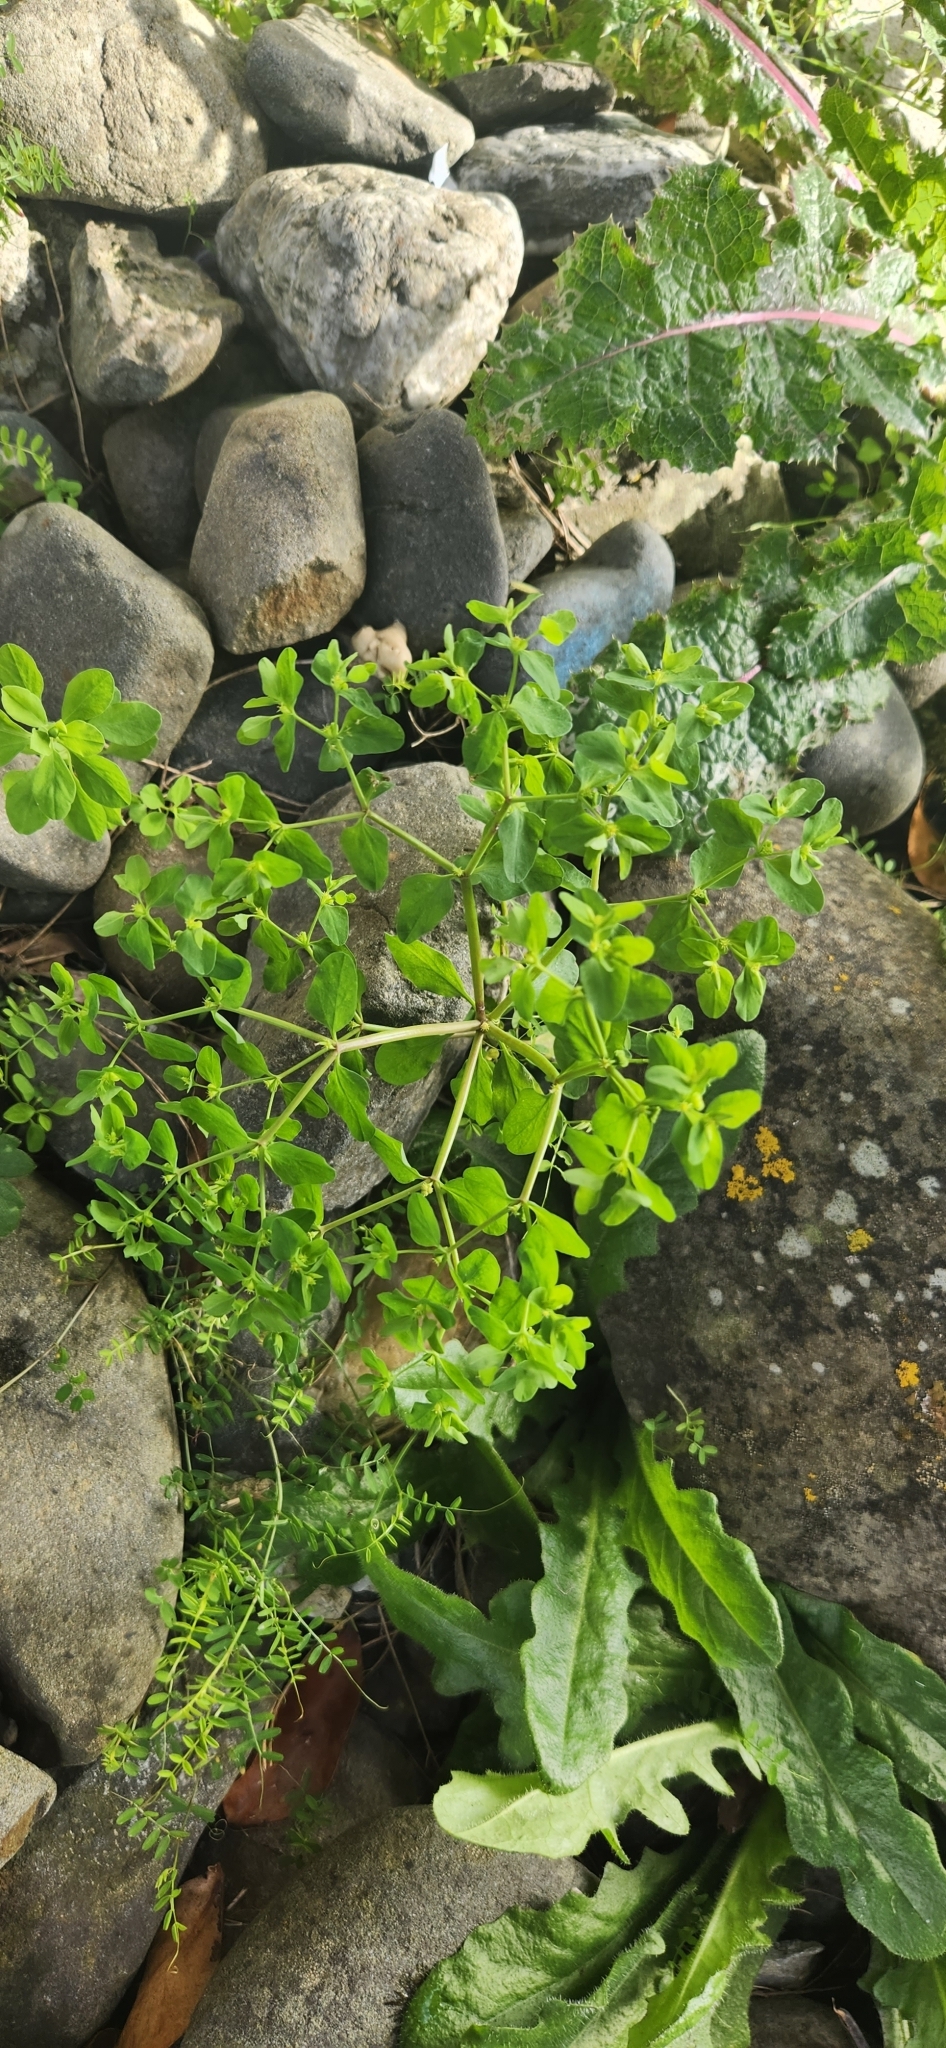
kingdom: Plantae
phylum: Tracheophyta
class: Magnoliopsida
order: Malpighiales
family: Euphorbiaceae
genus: Euphorbia
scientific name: Euphorbia peplus
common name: Petty spurge
